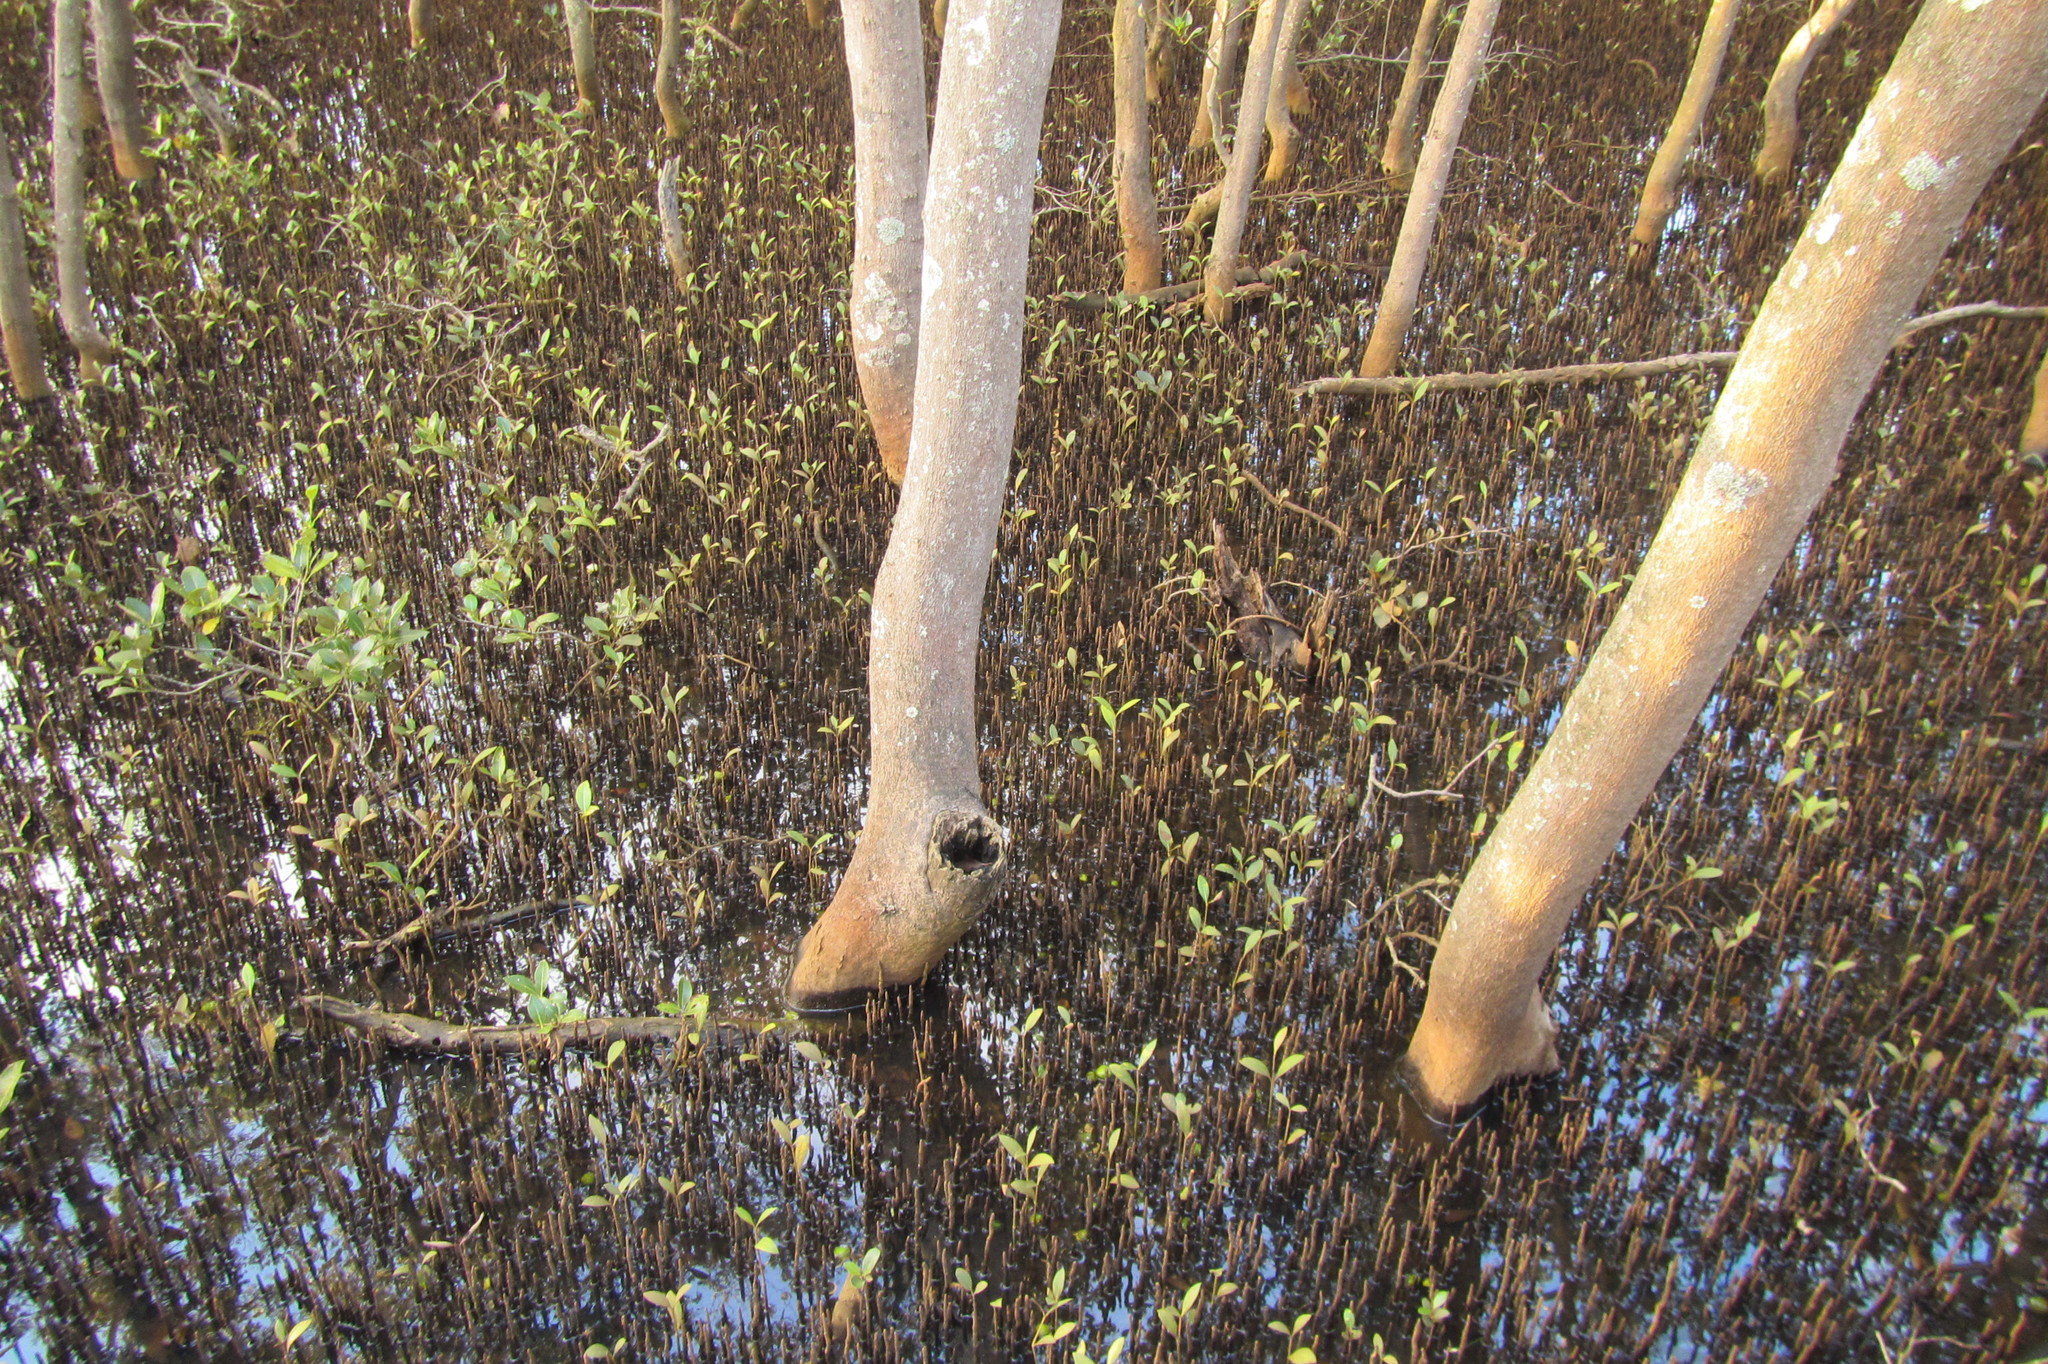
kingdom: Plantae
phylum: Tracheophyta
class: Magnoliopsida
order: Lamiales
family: Acanthaceae
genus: Avicennia
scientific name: Avicennia marina
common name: Gray mangrove
